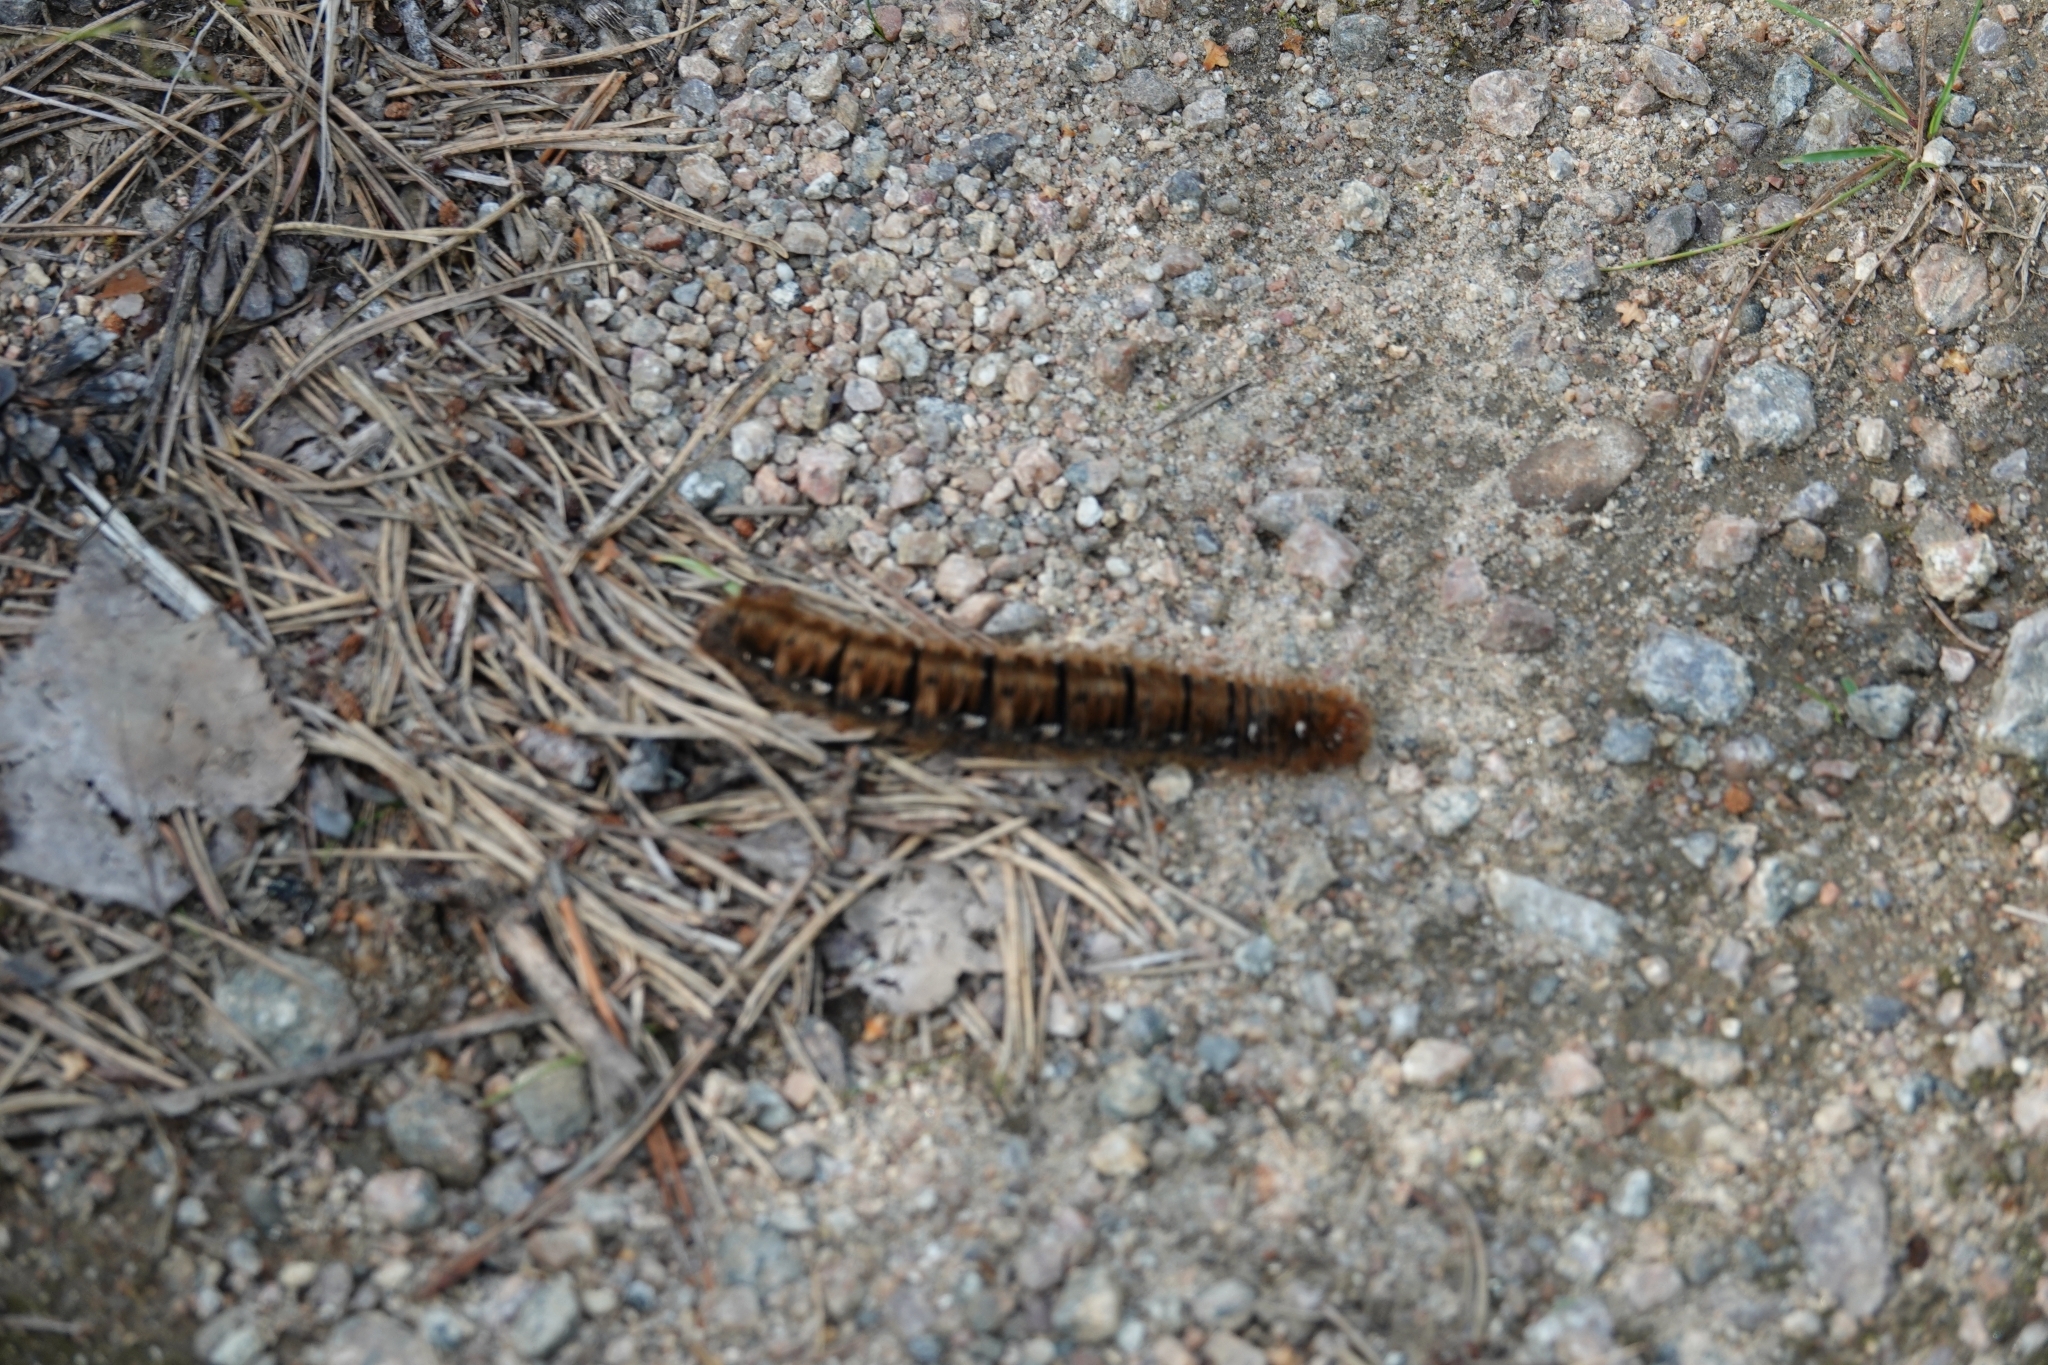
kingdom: Animalia
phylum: Arthropoda
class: Insecta
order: Lepidoptera
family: Lasiocampidae
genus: Lasiocampa
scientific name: Lasiocampa quercus
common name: Oak eggar
